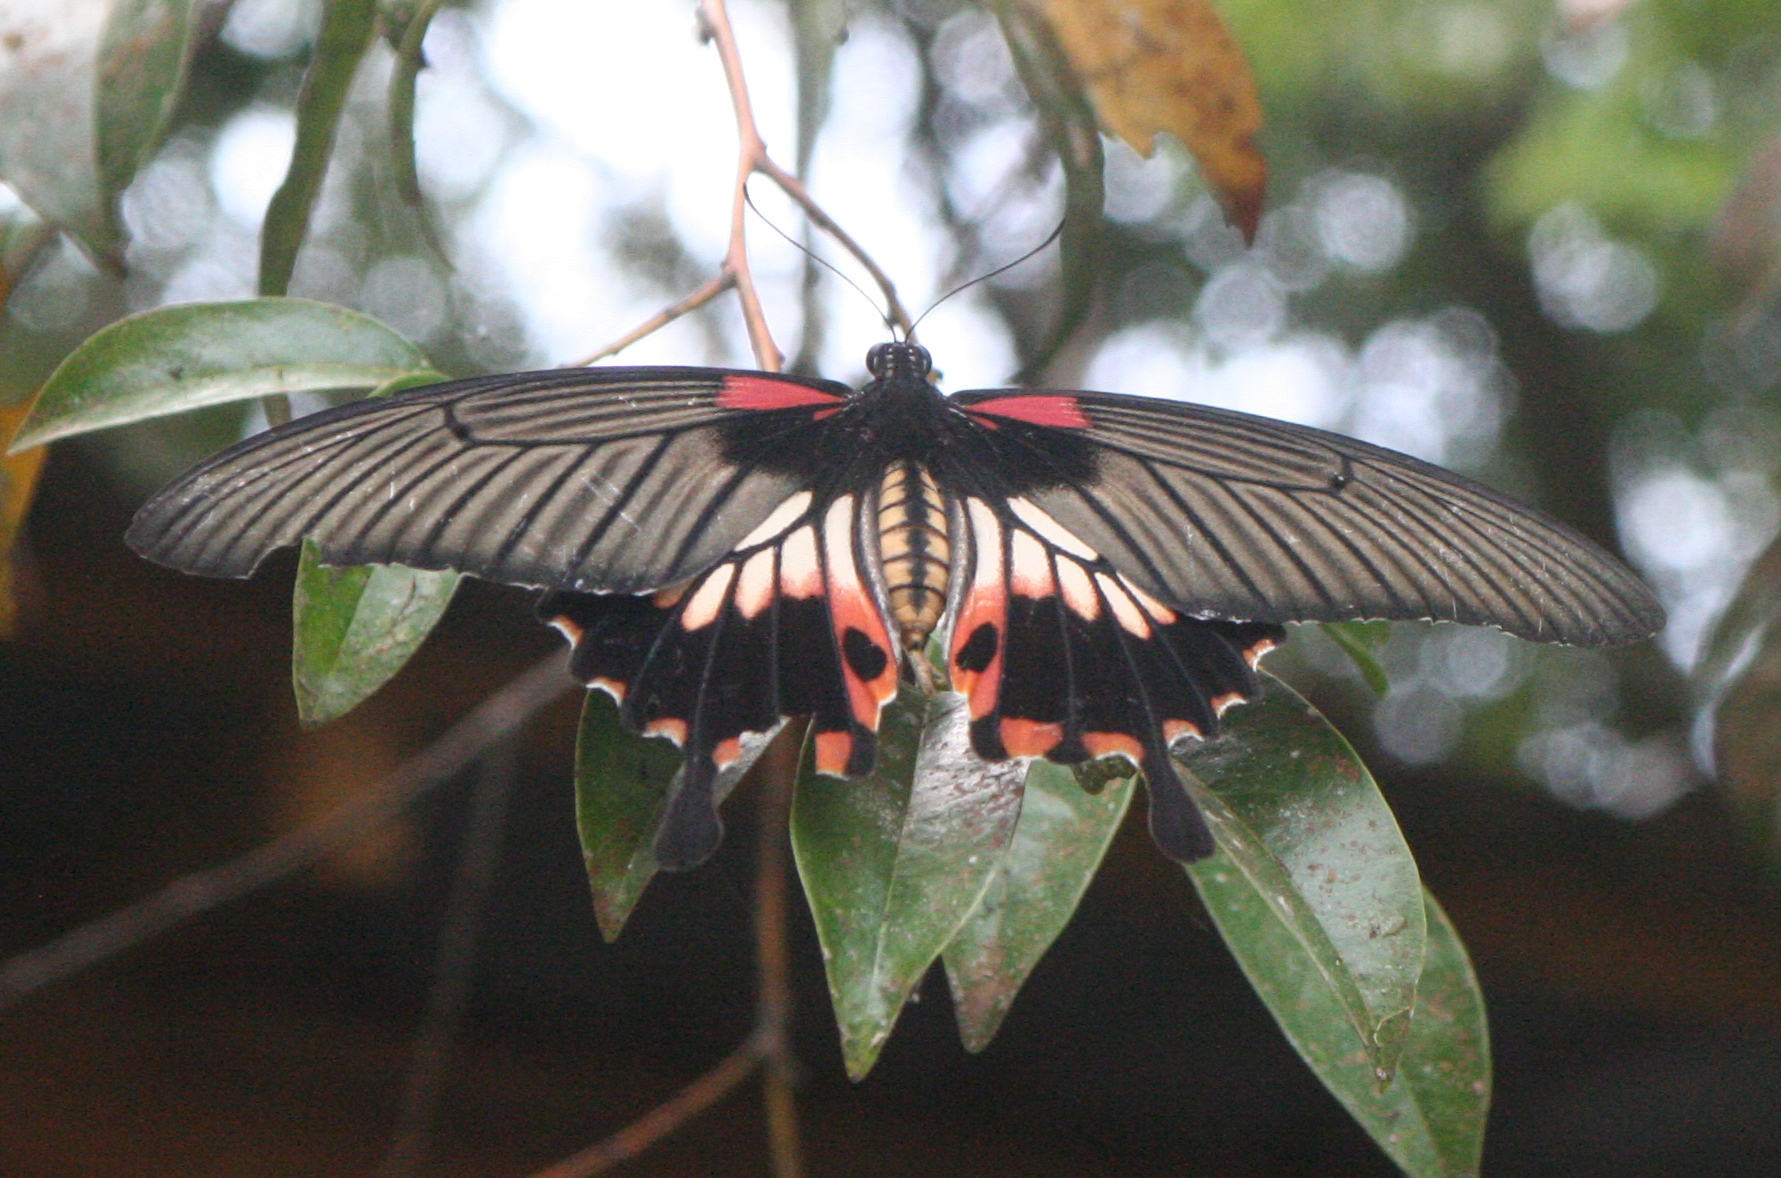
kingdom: Animalia
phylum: Arthropoda
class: Insecta
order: Lepidoptera
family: Papilionidae
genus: Papilio
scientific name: Papilio memnon
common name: Great mormon
